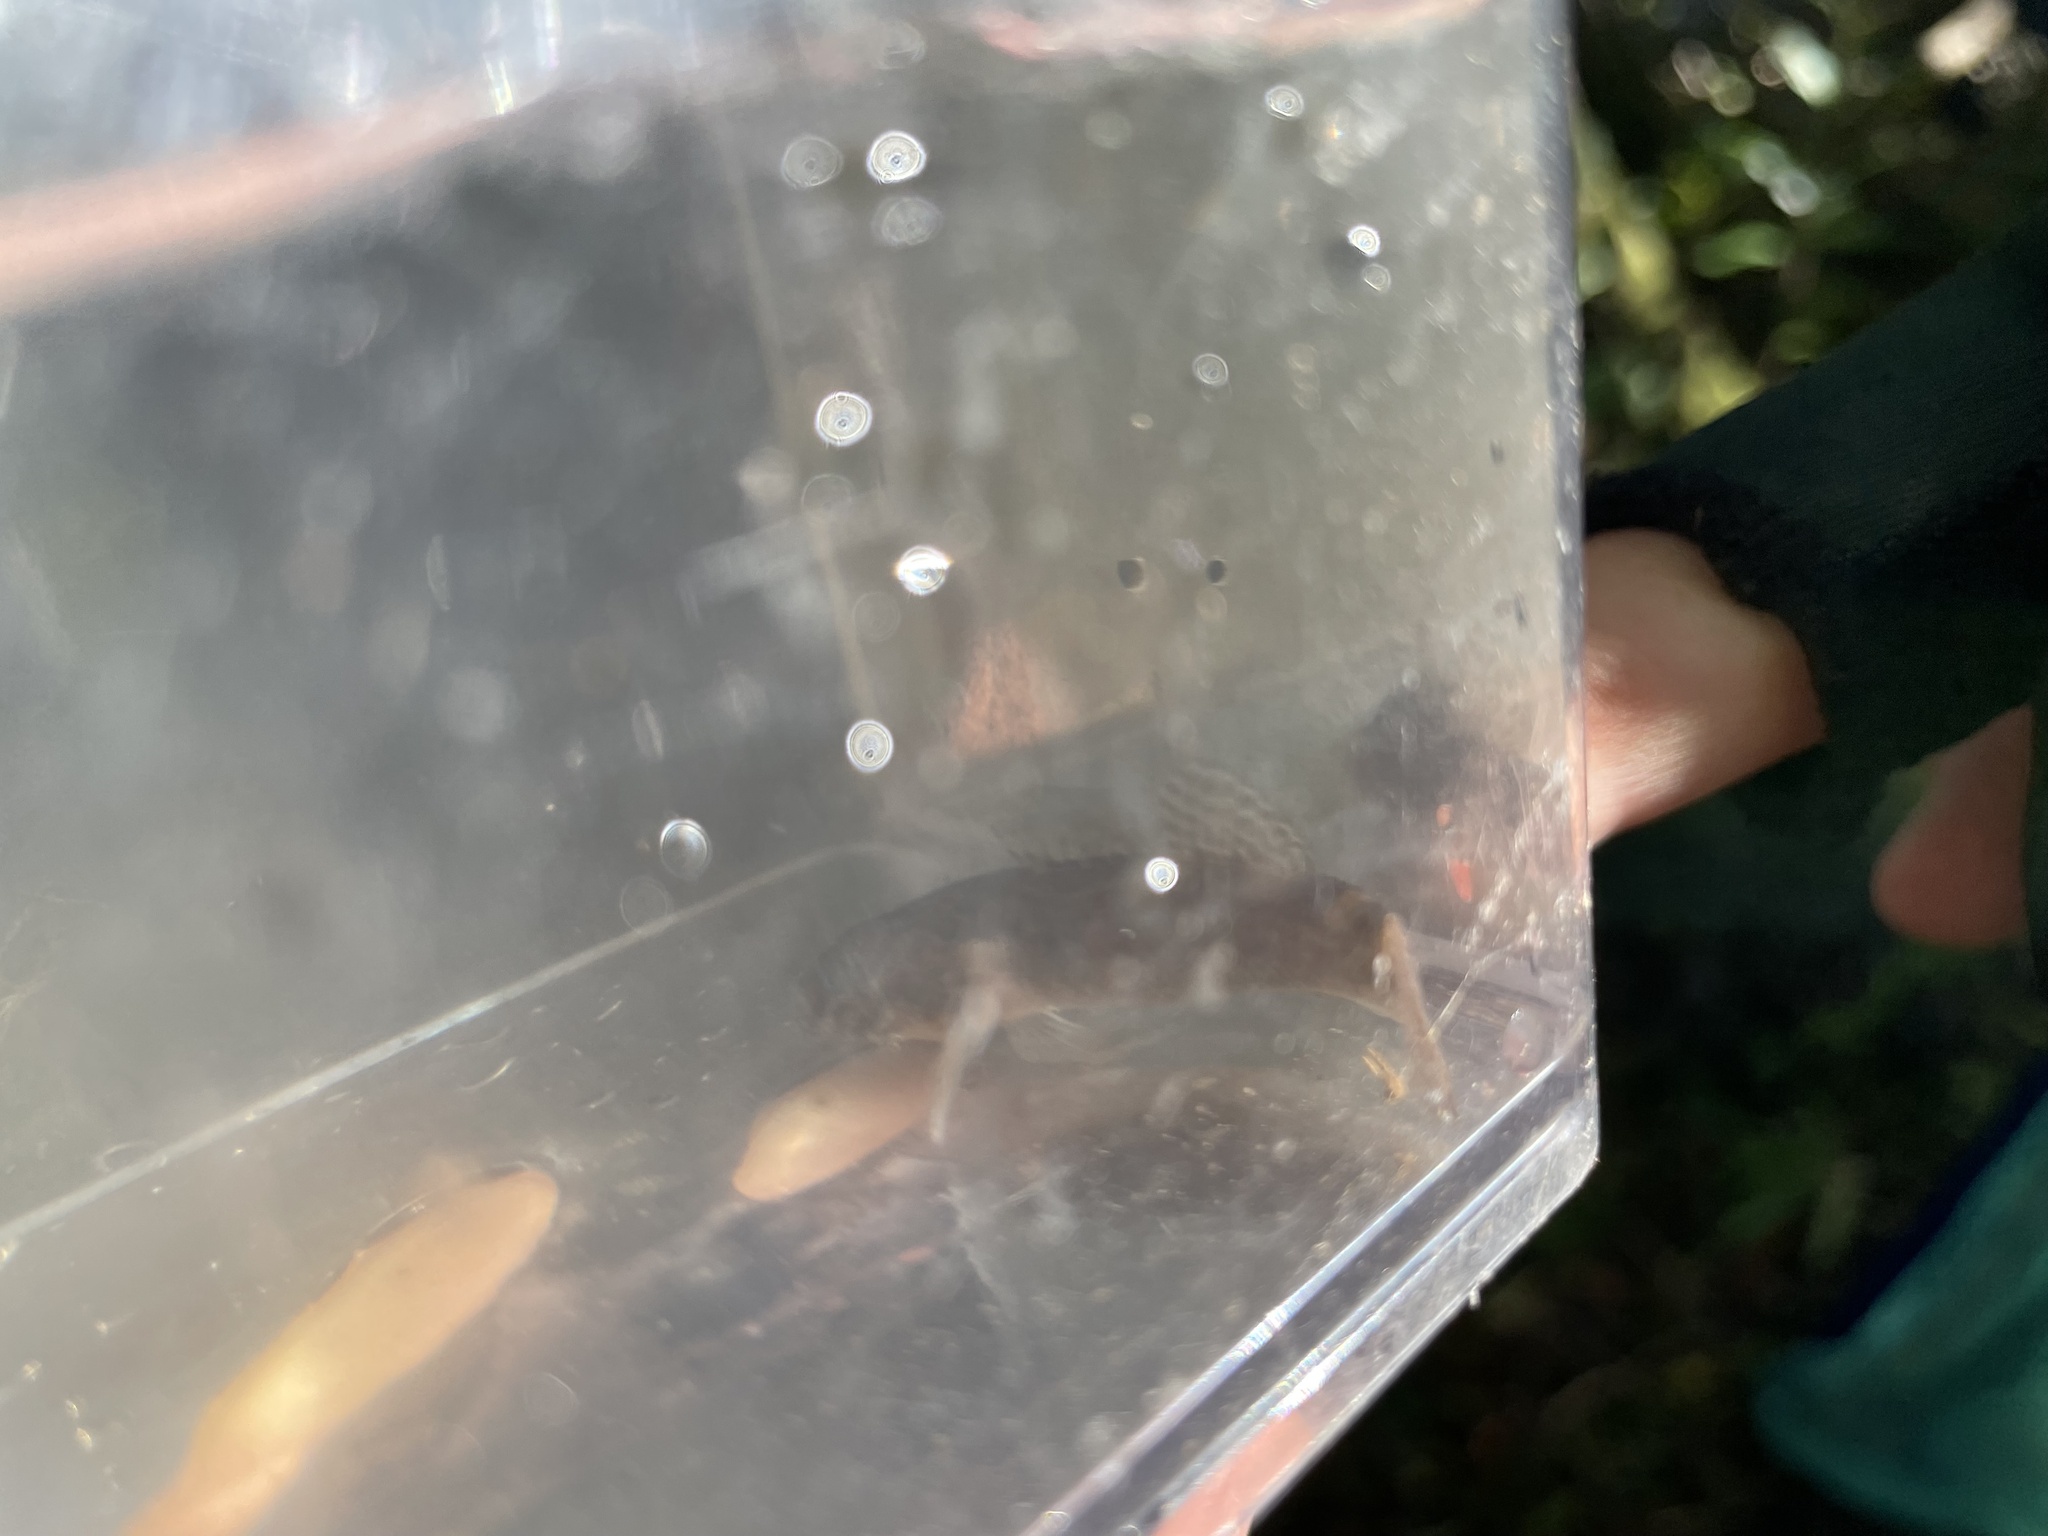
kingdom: Animalia
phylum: Chordata
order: Perciformes
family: Eleotridae
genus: Gobiomorphus
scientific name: Gobiomorphus huttoni
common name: Redfin bully
